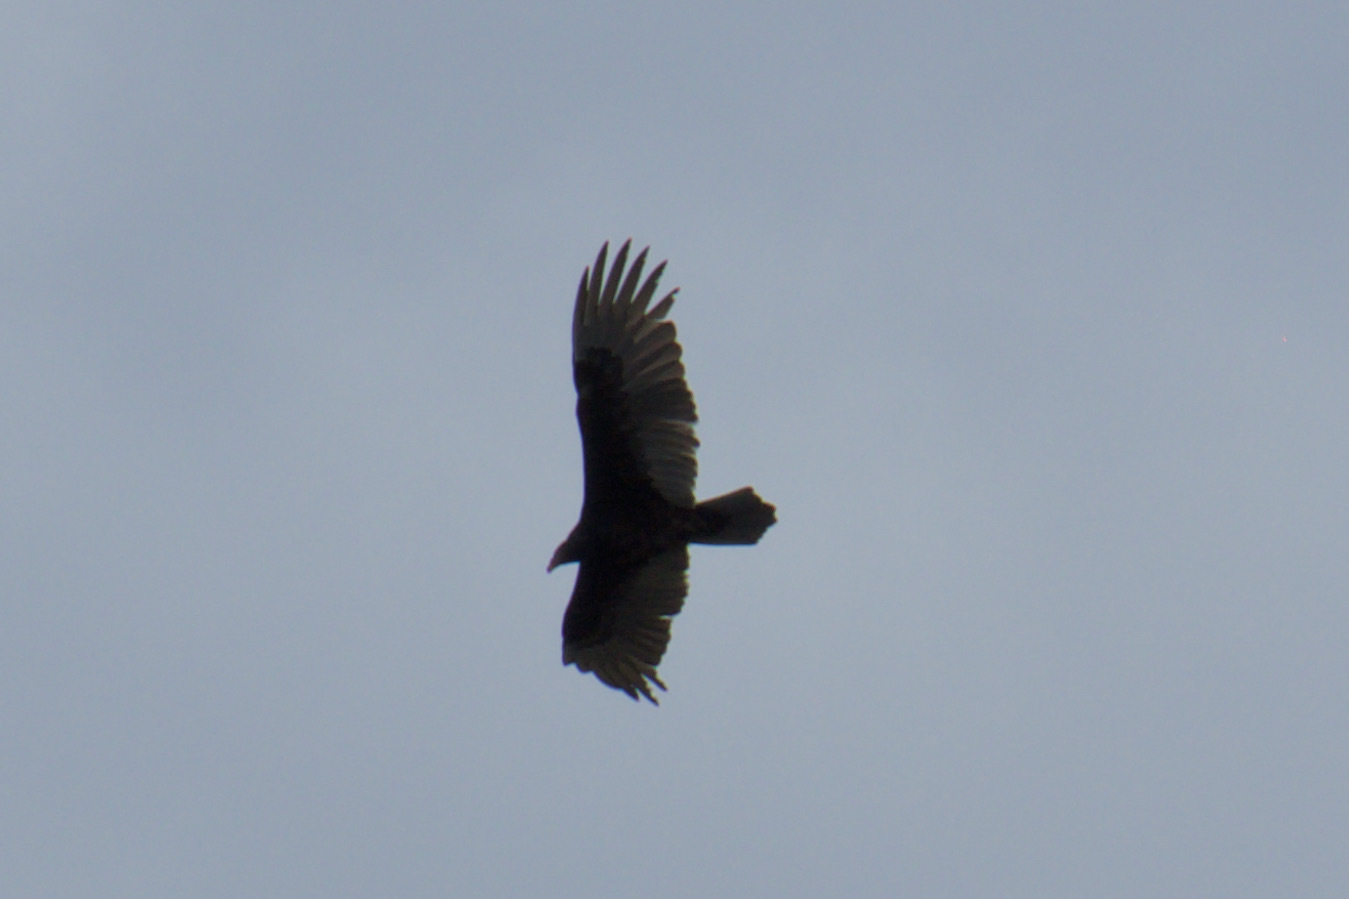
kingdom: Animalia
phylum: Chordata
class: Aves
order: Accipitriformes
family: Cathartidae
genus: Cathartes
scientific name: Cathartes aura
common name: Turkey vulture
